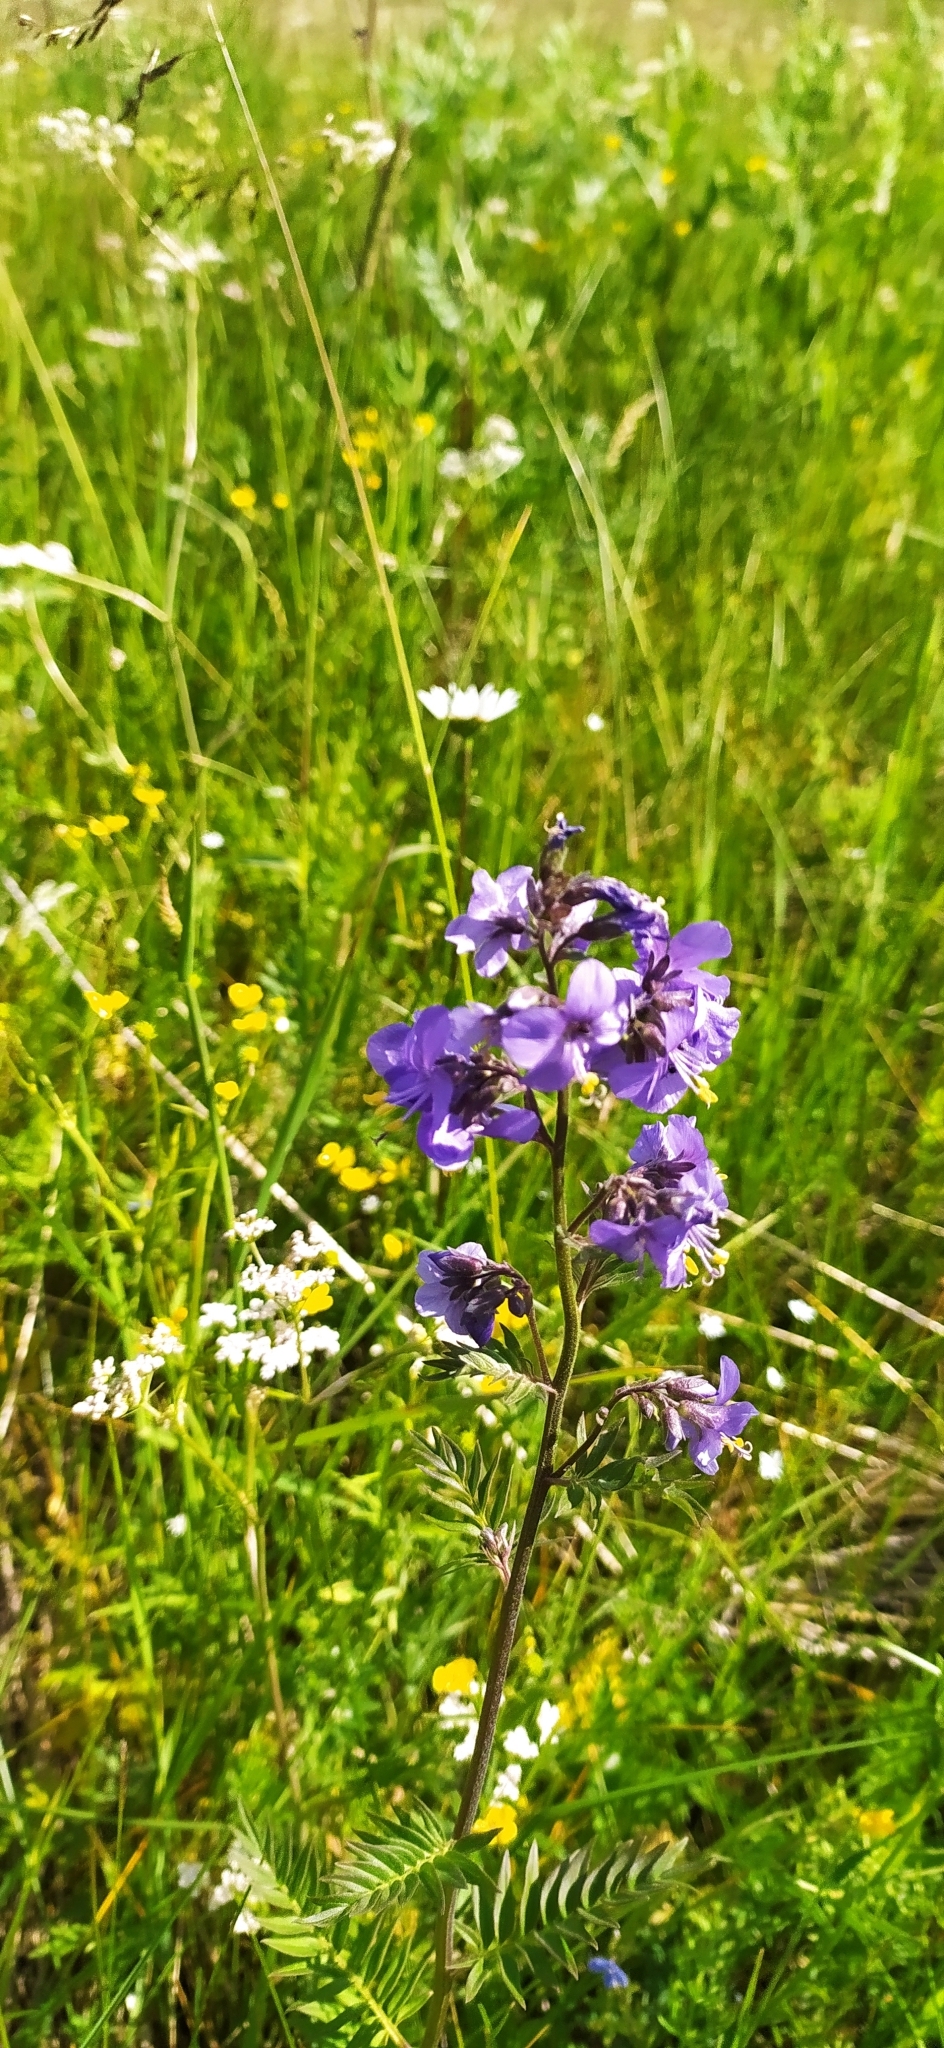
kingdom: Plantae
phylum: Tracheophyta
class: Magnoliopsida
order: Ericales
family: Polemoniaceae
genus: Polemonium
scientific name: Polemonium caeruleum
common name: Jacob's-ladder
